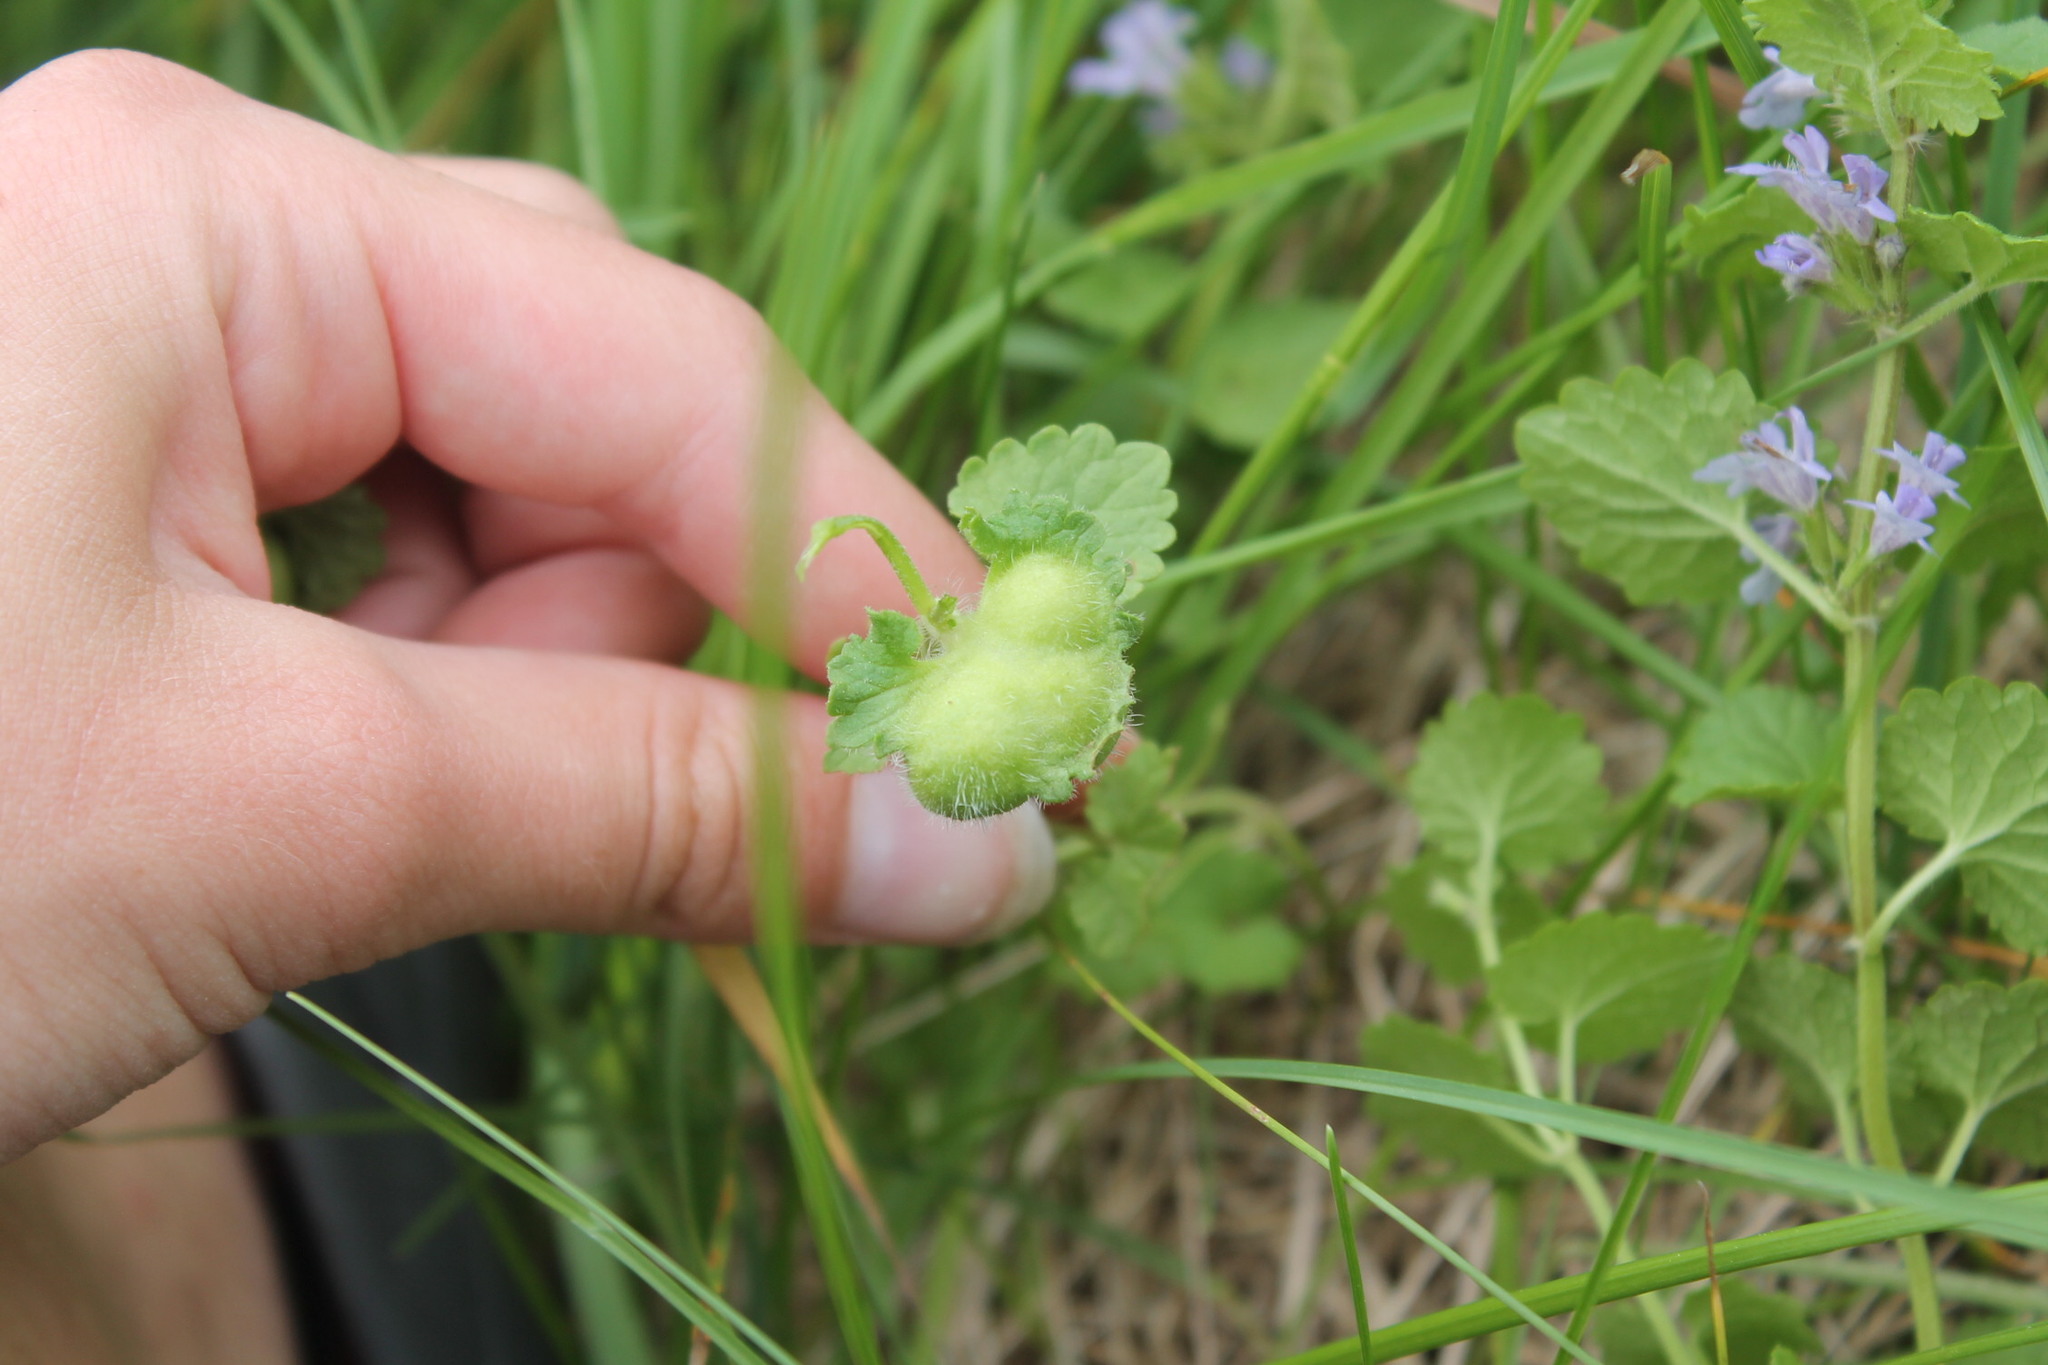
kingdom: Animalia
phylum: Arthropoda
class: Insecta
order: Hymenoptera
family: Cynipidae
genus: Liposthenes
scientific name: Liposthenes glechomae
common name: Gall wasp
